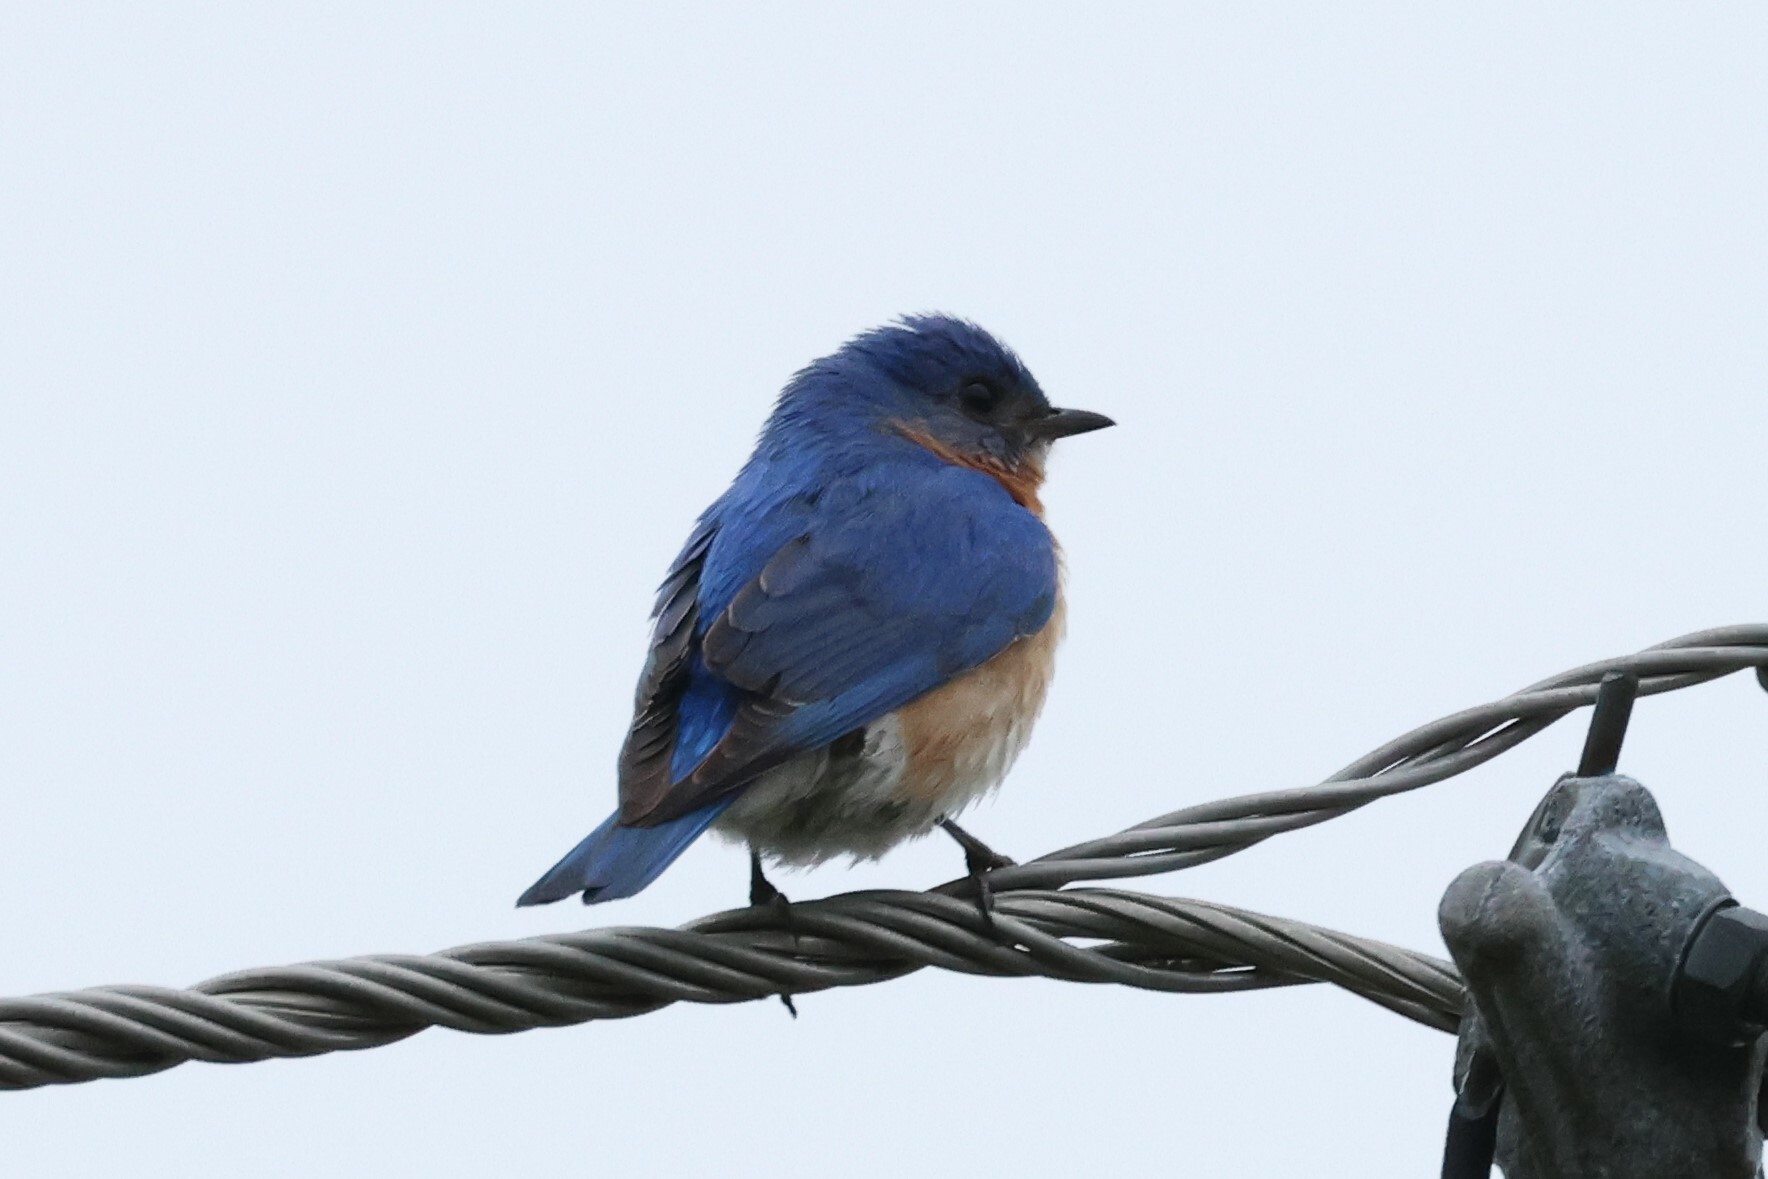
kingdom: Animalia
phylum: Chordata
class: Aves
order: Passeriformes
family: Turdidae
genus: Sialia
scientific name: Sialia sialis
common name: Eastern bluebird
